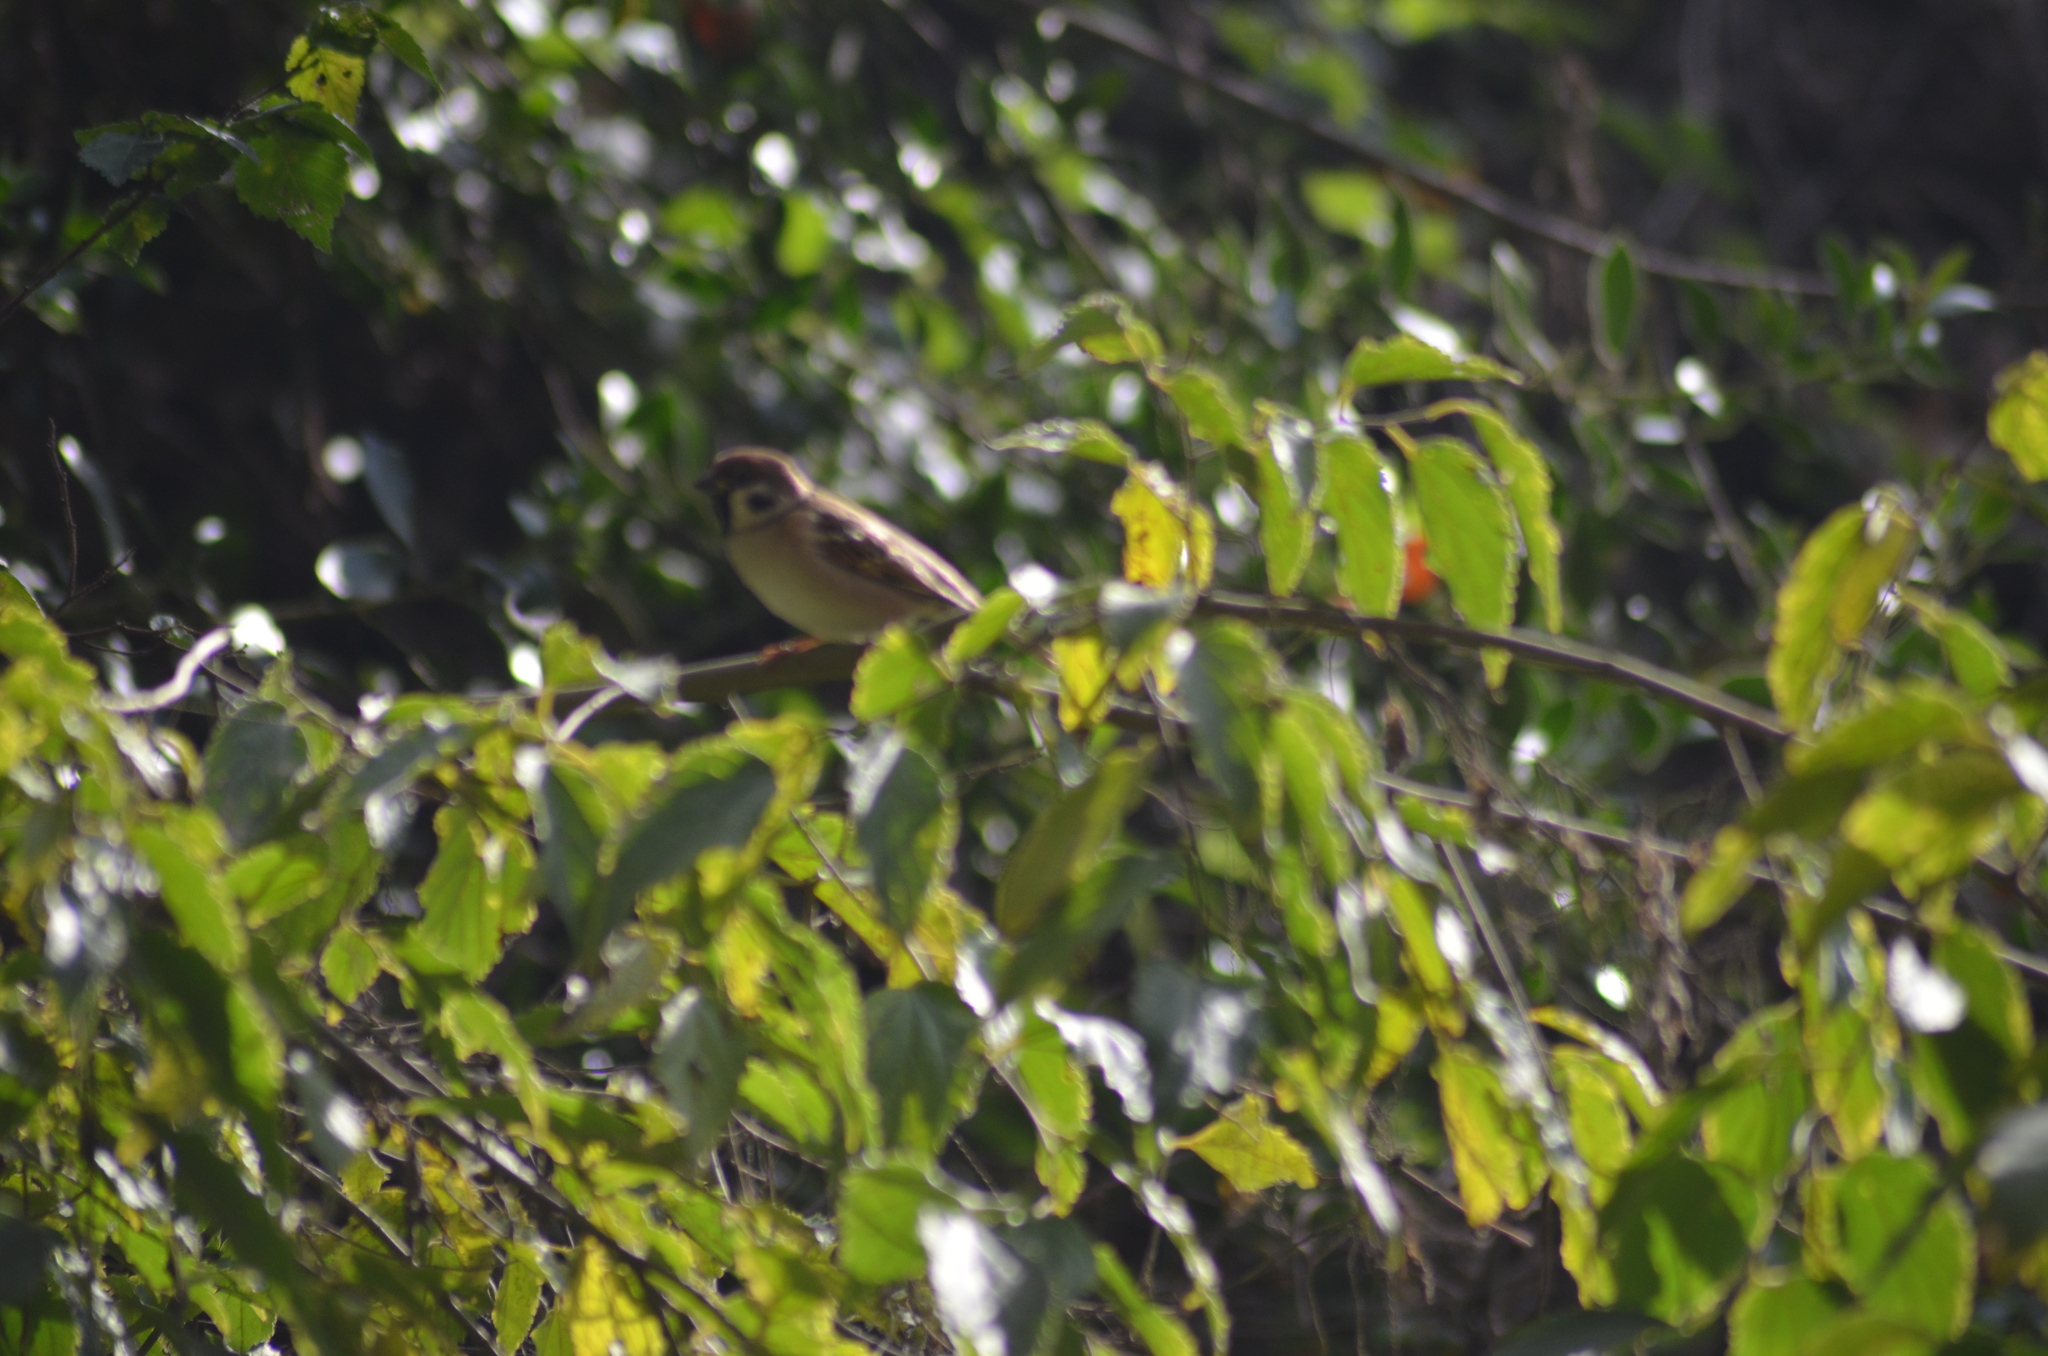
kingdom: Animalia
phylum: Chordata
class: Aves
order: Passeriformes
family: Passeridae
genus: Passer
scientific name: Passer montanus
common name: Eurasian tree sparrow
